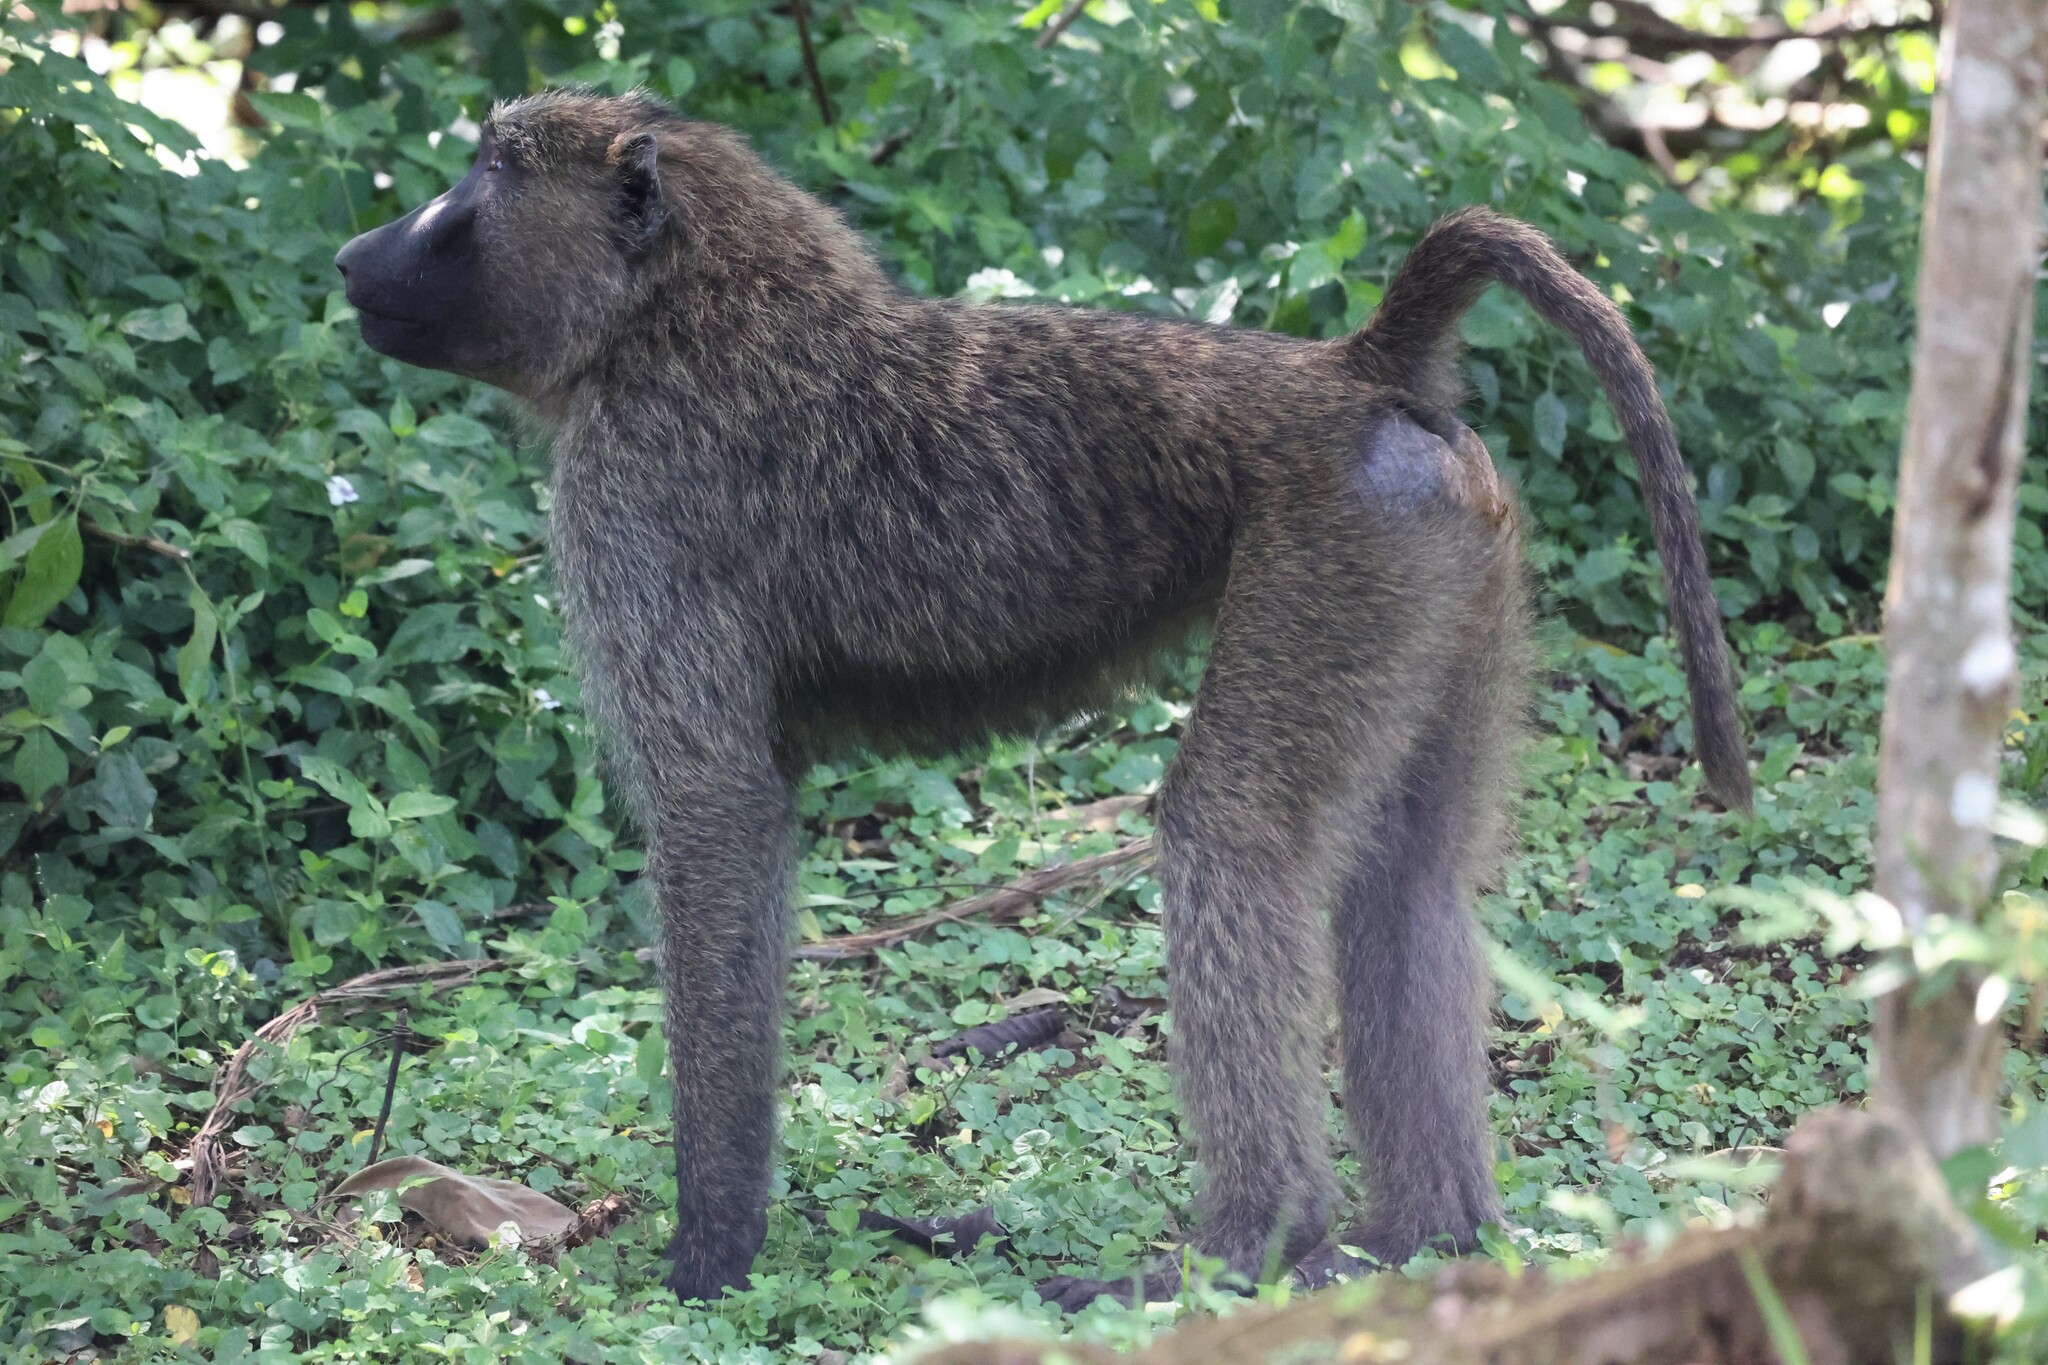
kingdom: Animalia
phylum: Chordata
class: Mammalia
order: Primates
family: Cercopithecidae
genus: Papio
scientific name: Papio anubis
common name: Olive baboon
